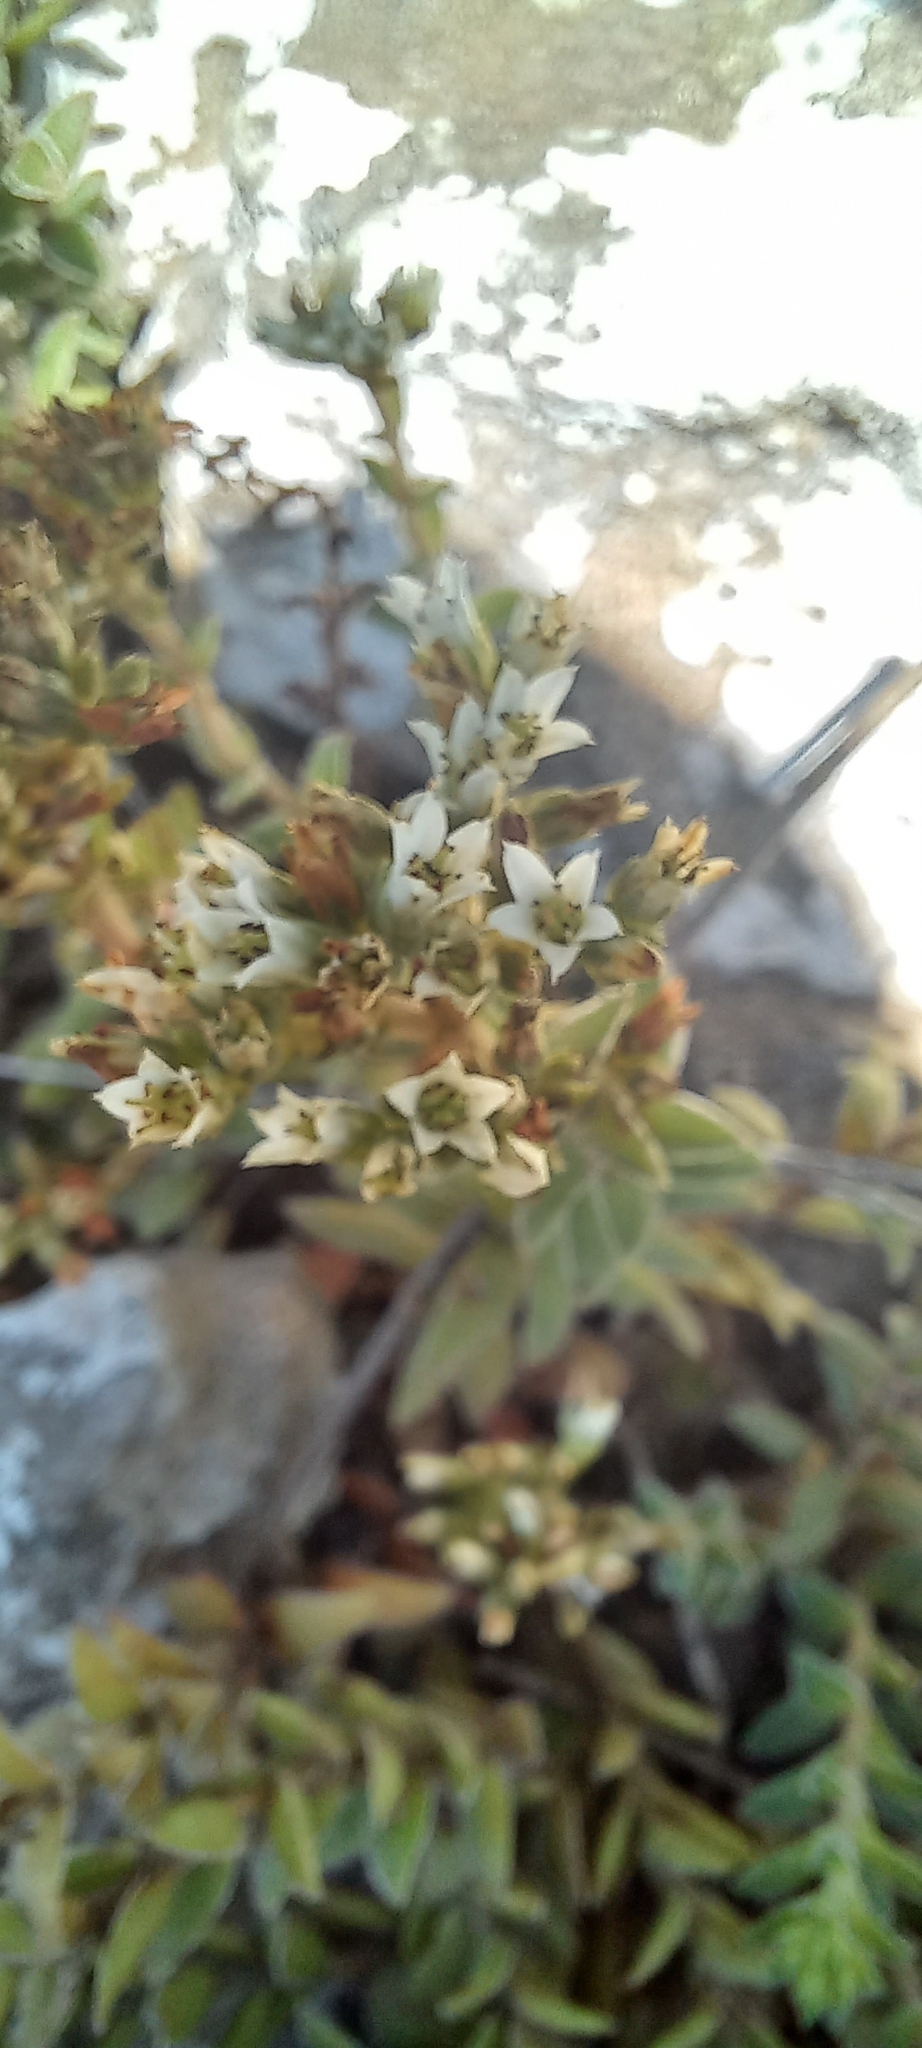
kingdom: Plantae
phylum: Tracheophyta
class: Magnoliopsida
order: Saxifragales
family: Crassulaceae
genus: Crassula
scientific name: Crassula obovata
